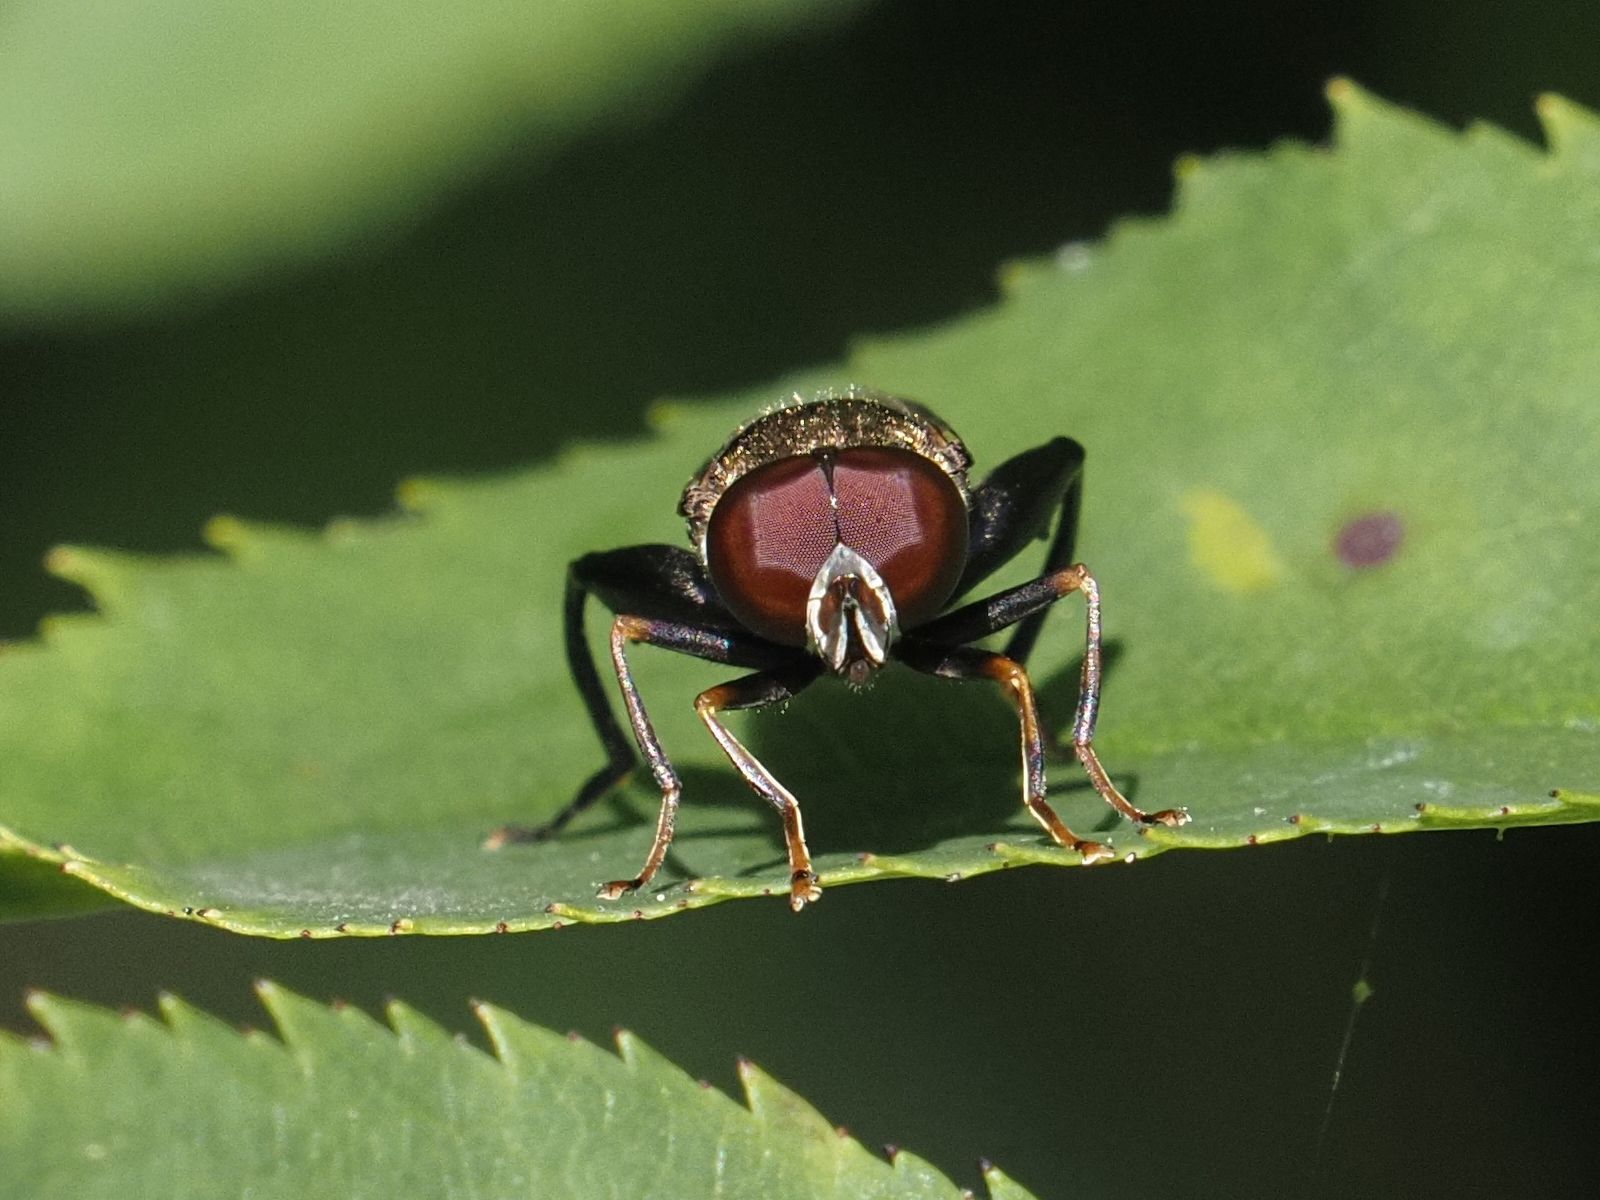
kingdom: Animalia
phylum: Arthropoda
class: Insecta
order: Diptera
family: Syrphidae
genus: Tropidia
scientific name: Tropidia scita
